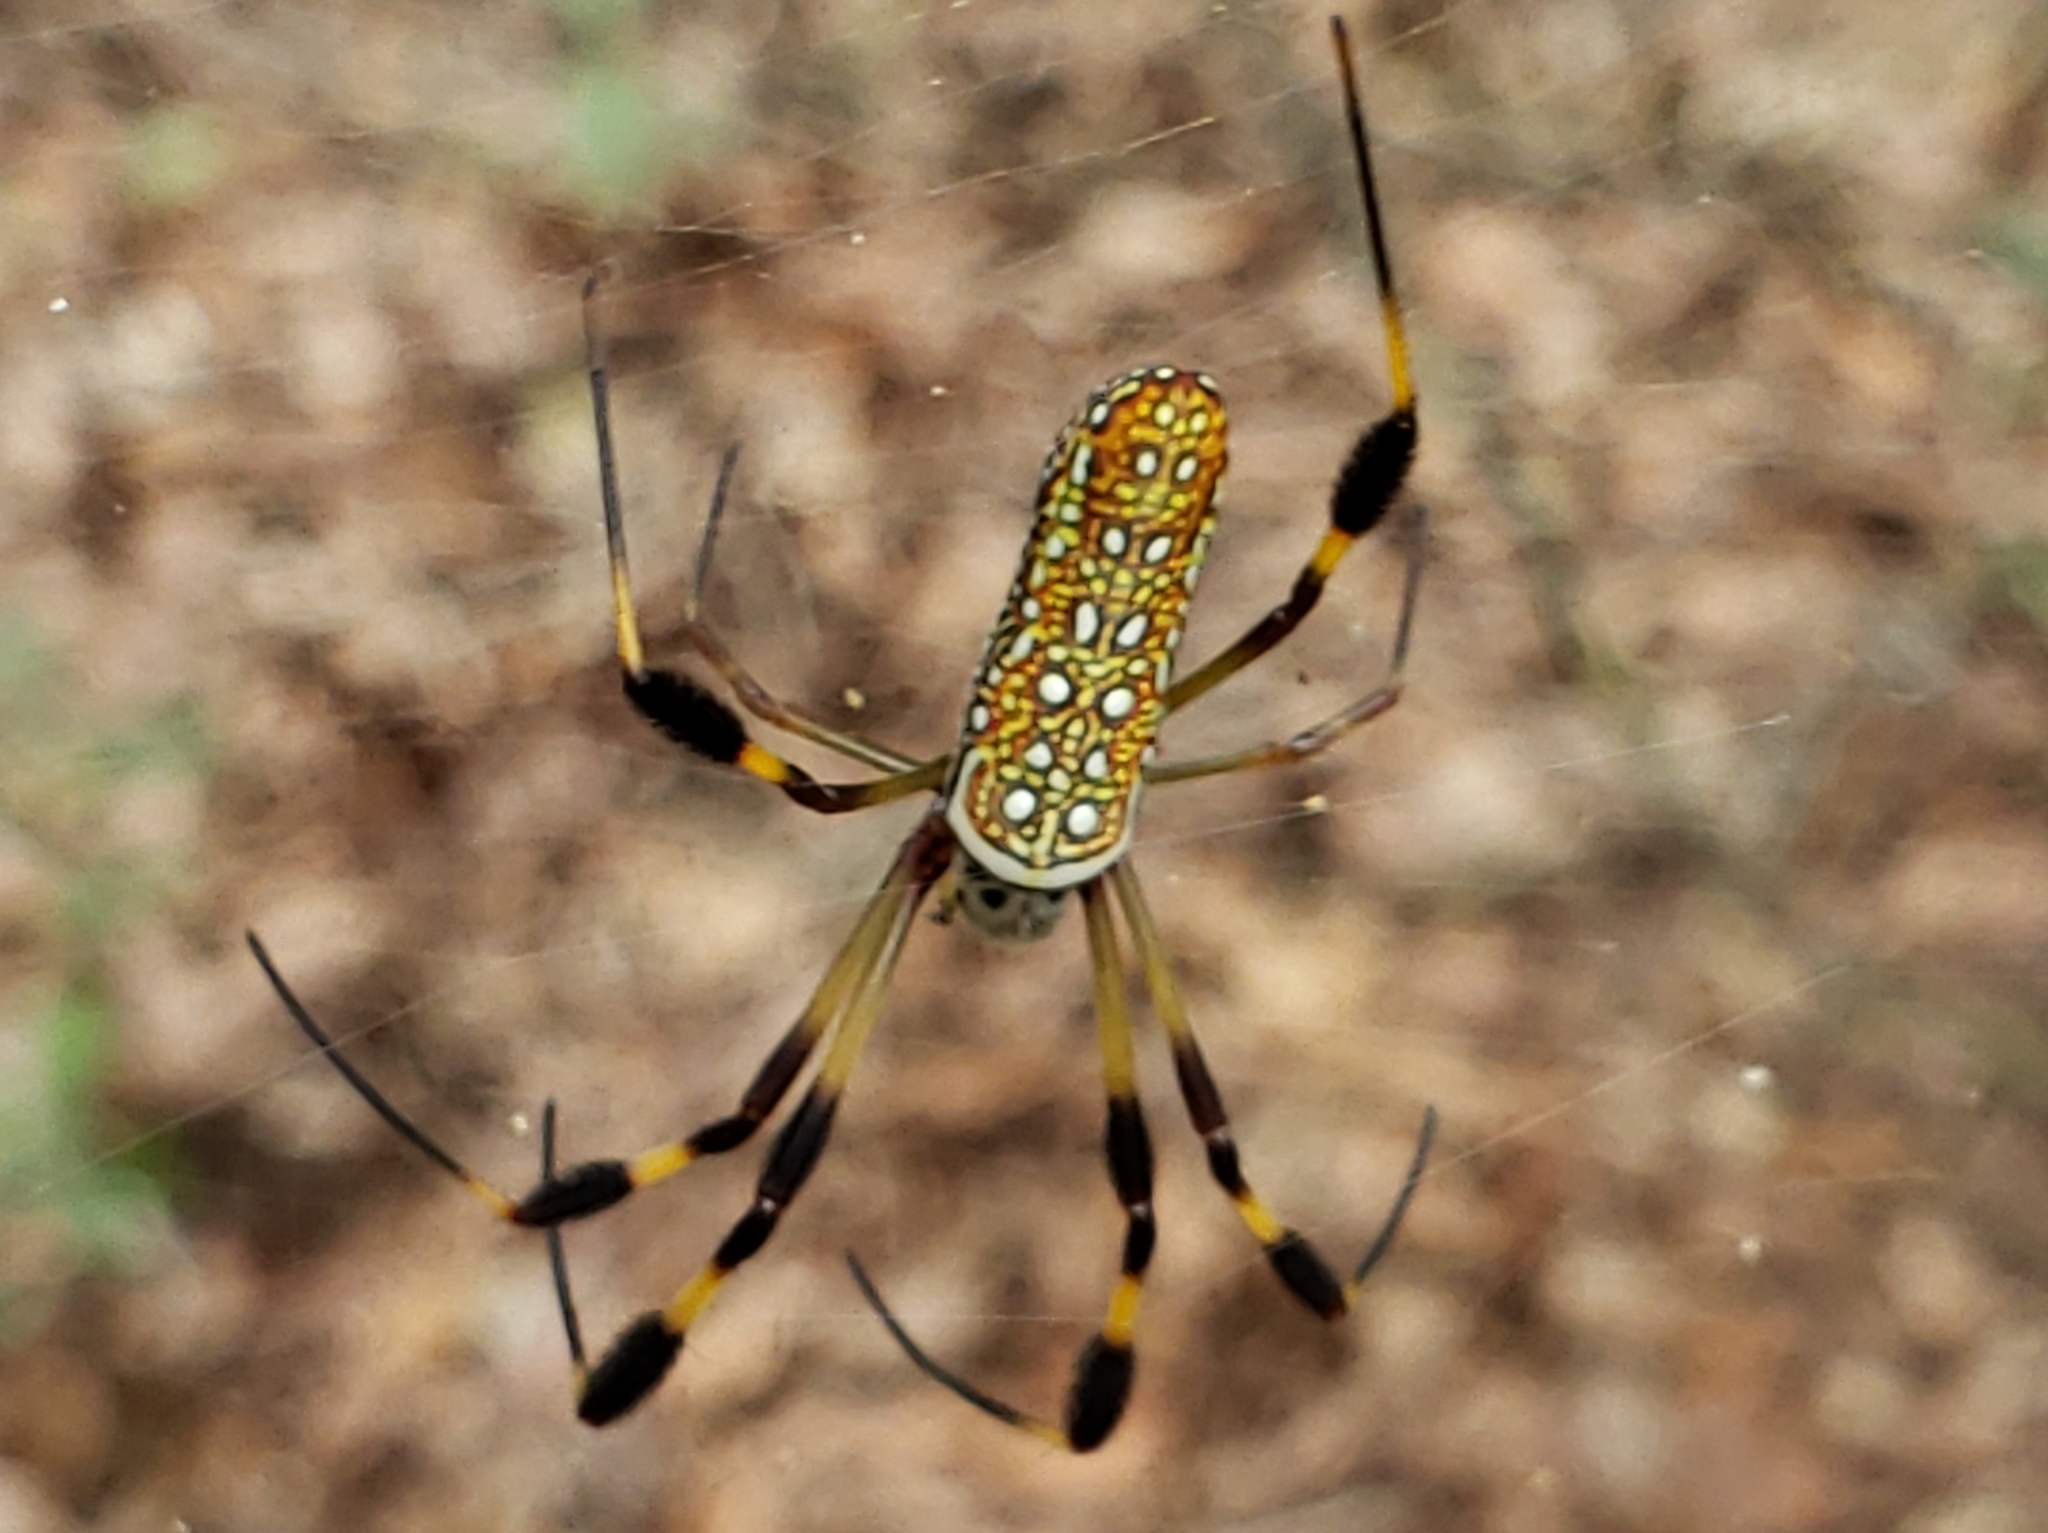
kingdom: Animalia
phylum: Arthropoda
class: Arachnida
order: Araneae
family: Araneidae
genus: Trichonephila
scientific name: Trichonephila clavipes
